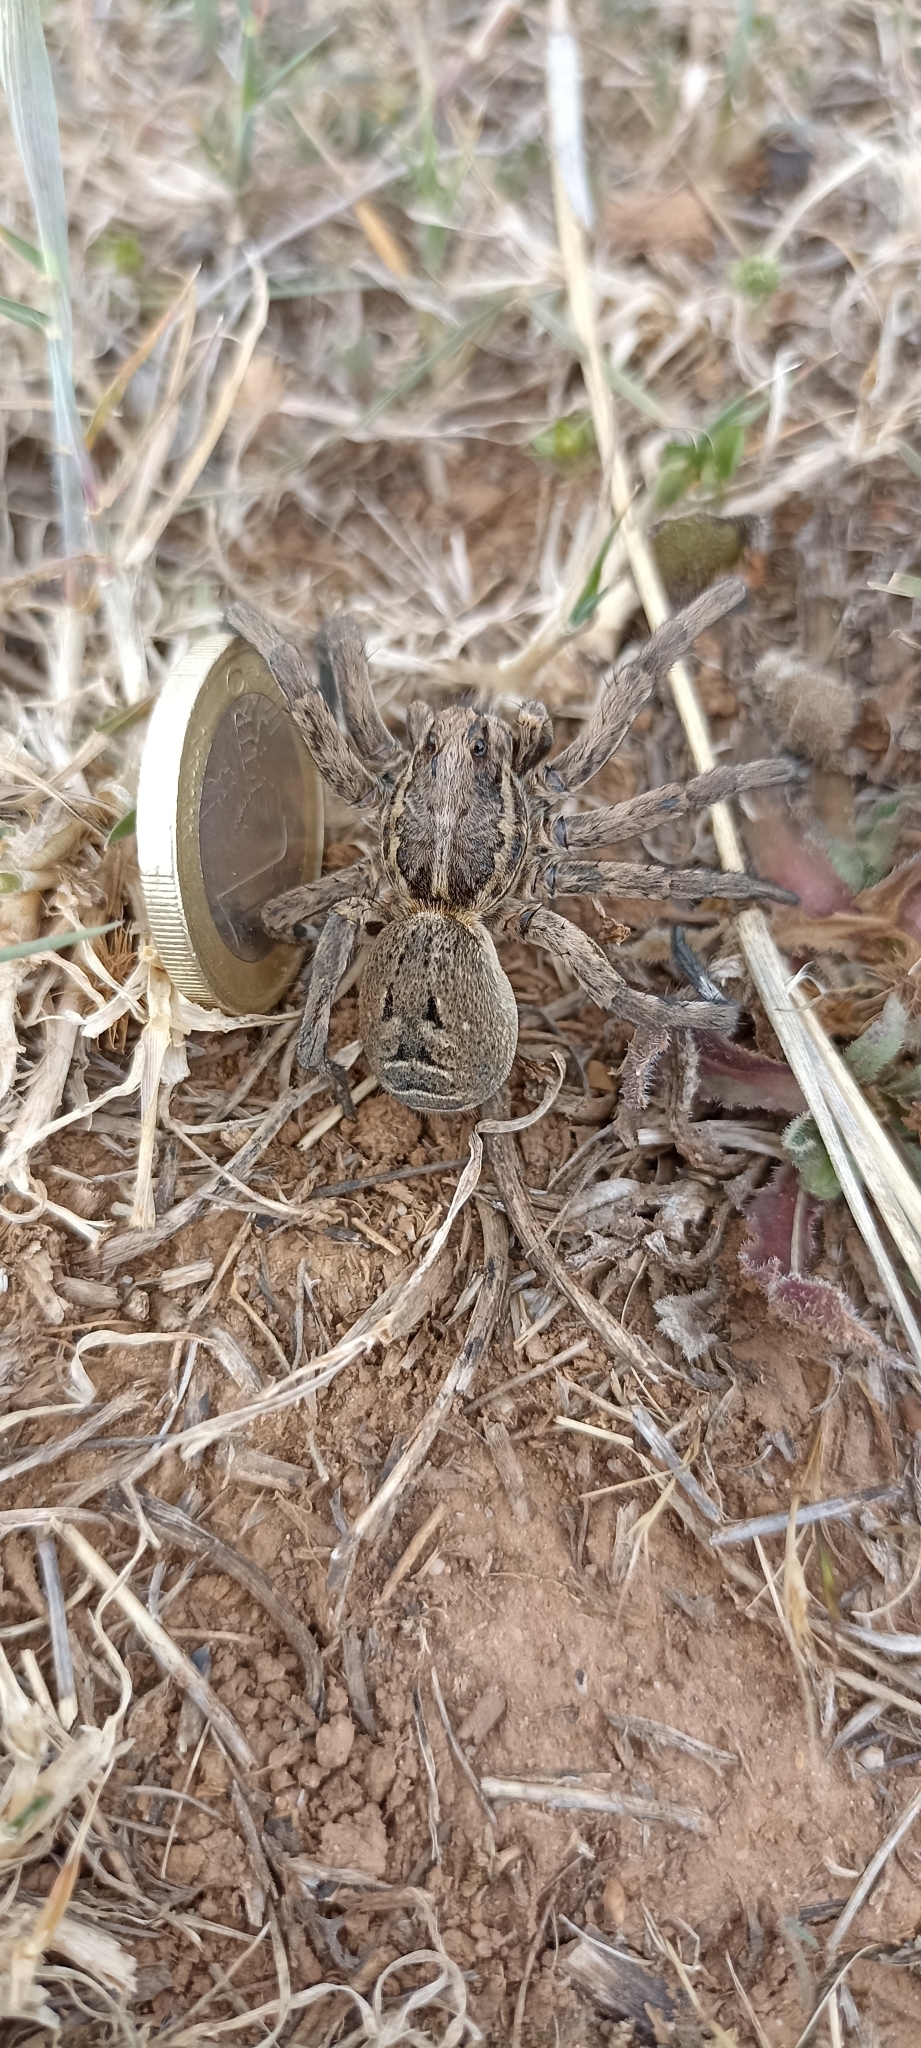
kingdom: Animalia
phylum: Arthropoda
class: Arachnida
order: Araneae
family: Lycosidae
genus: Lycosa
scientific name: Lycosa tarantula
